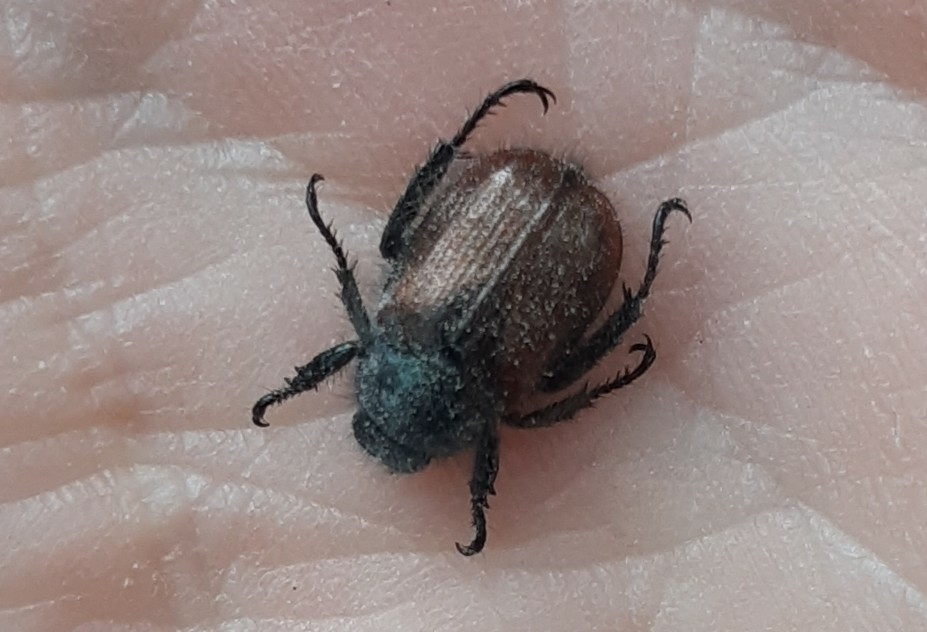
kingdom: Animalia
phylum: Arthropoda
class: Insecta
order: Coleoptera
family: Scarabaeidae
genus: Phyllopertha
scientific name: Phyllopertha horticola
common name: Garden chafer
